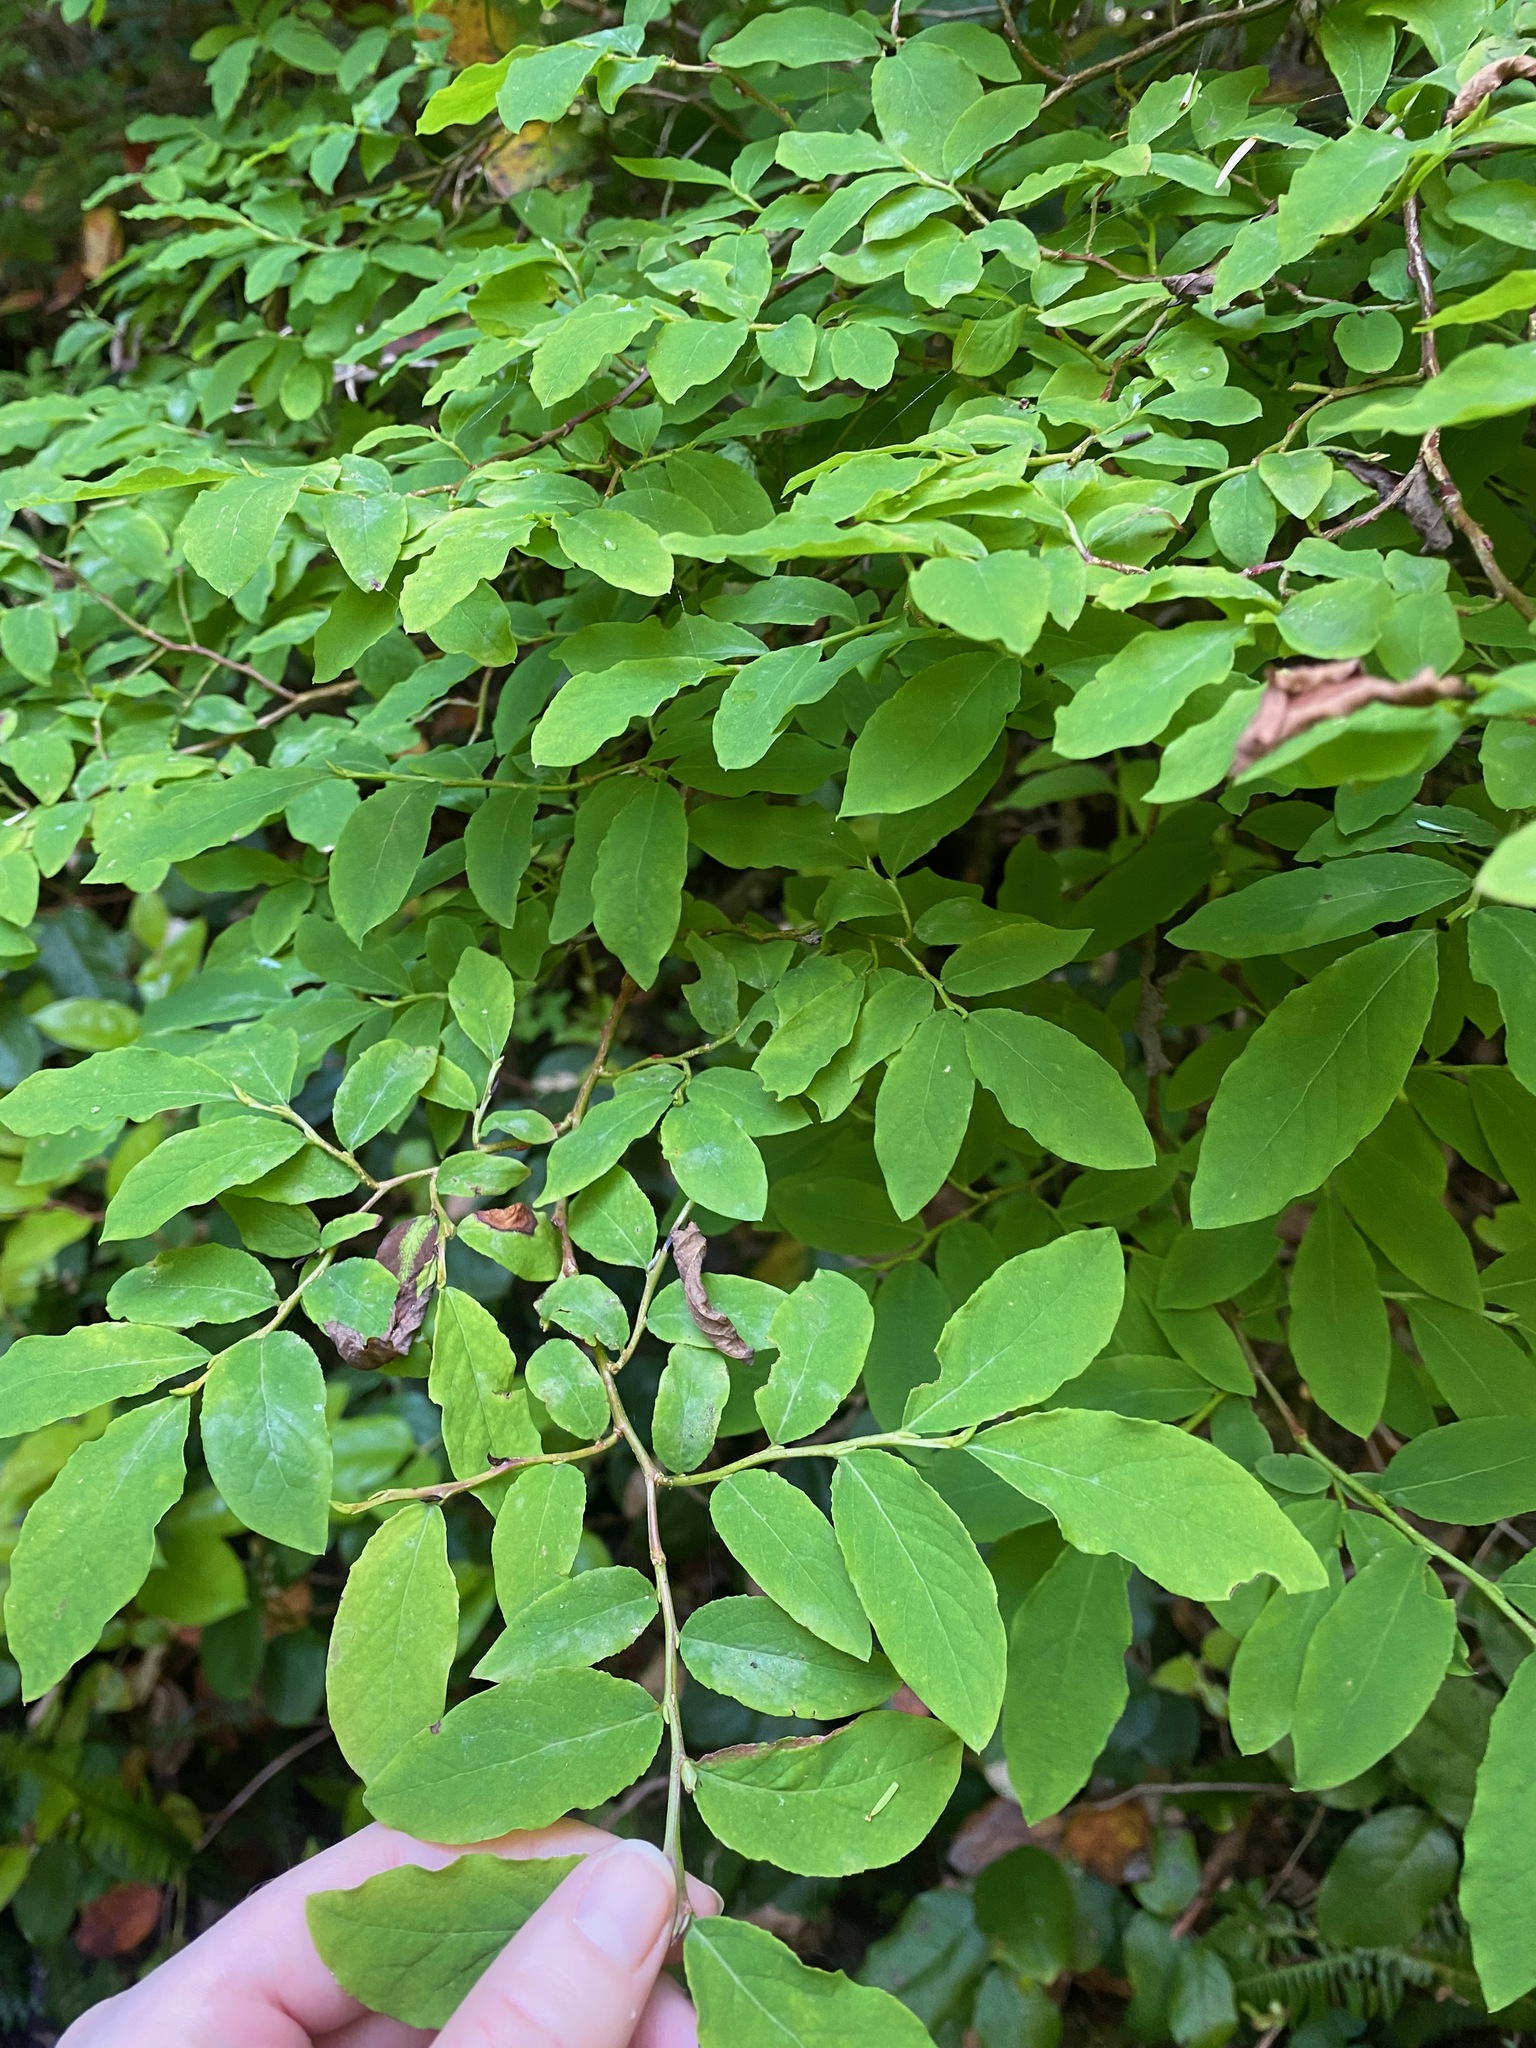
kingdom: Plantae
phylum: Tracheophyta
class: Magnoliopsida
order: Ericales
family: Ericaceae
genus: Vaccinium
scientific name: Vaccinium ovalifolium
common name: Early blueberry
